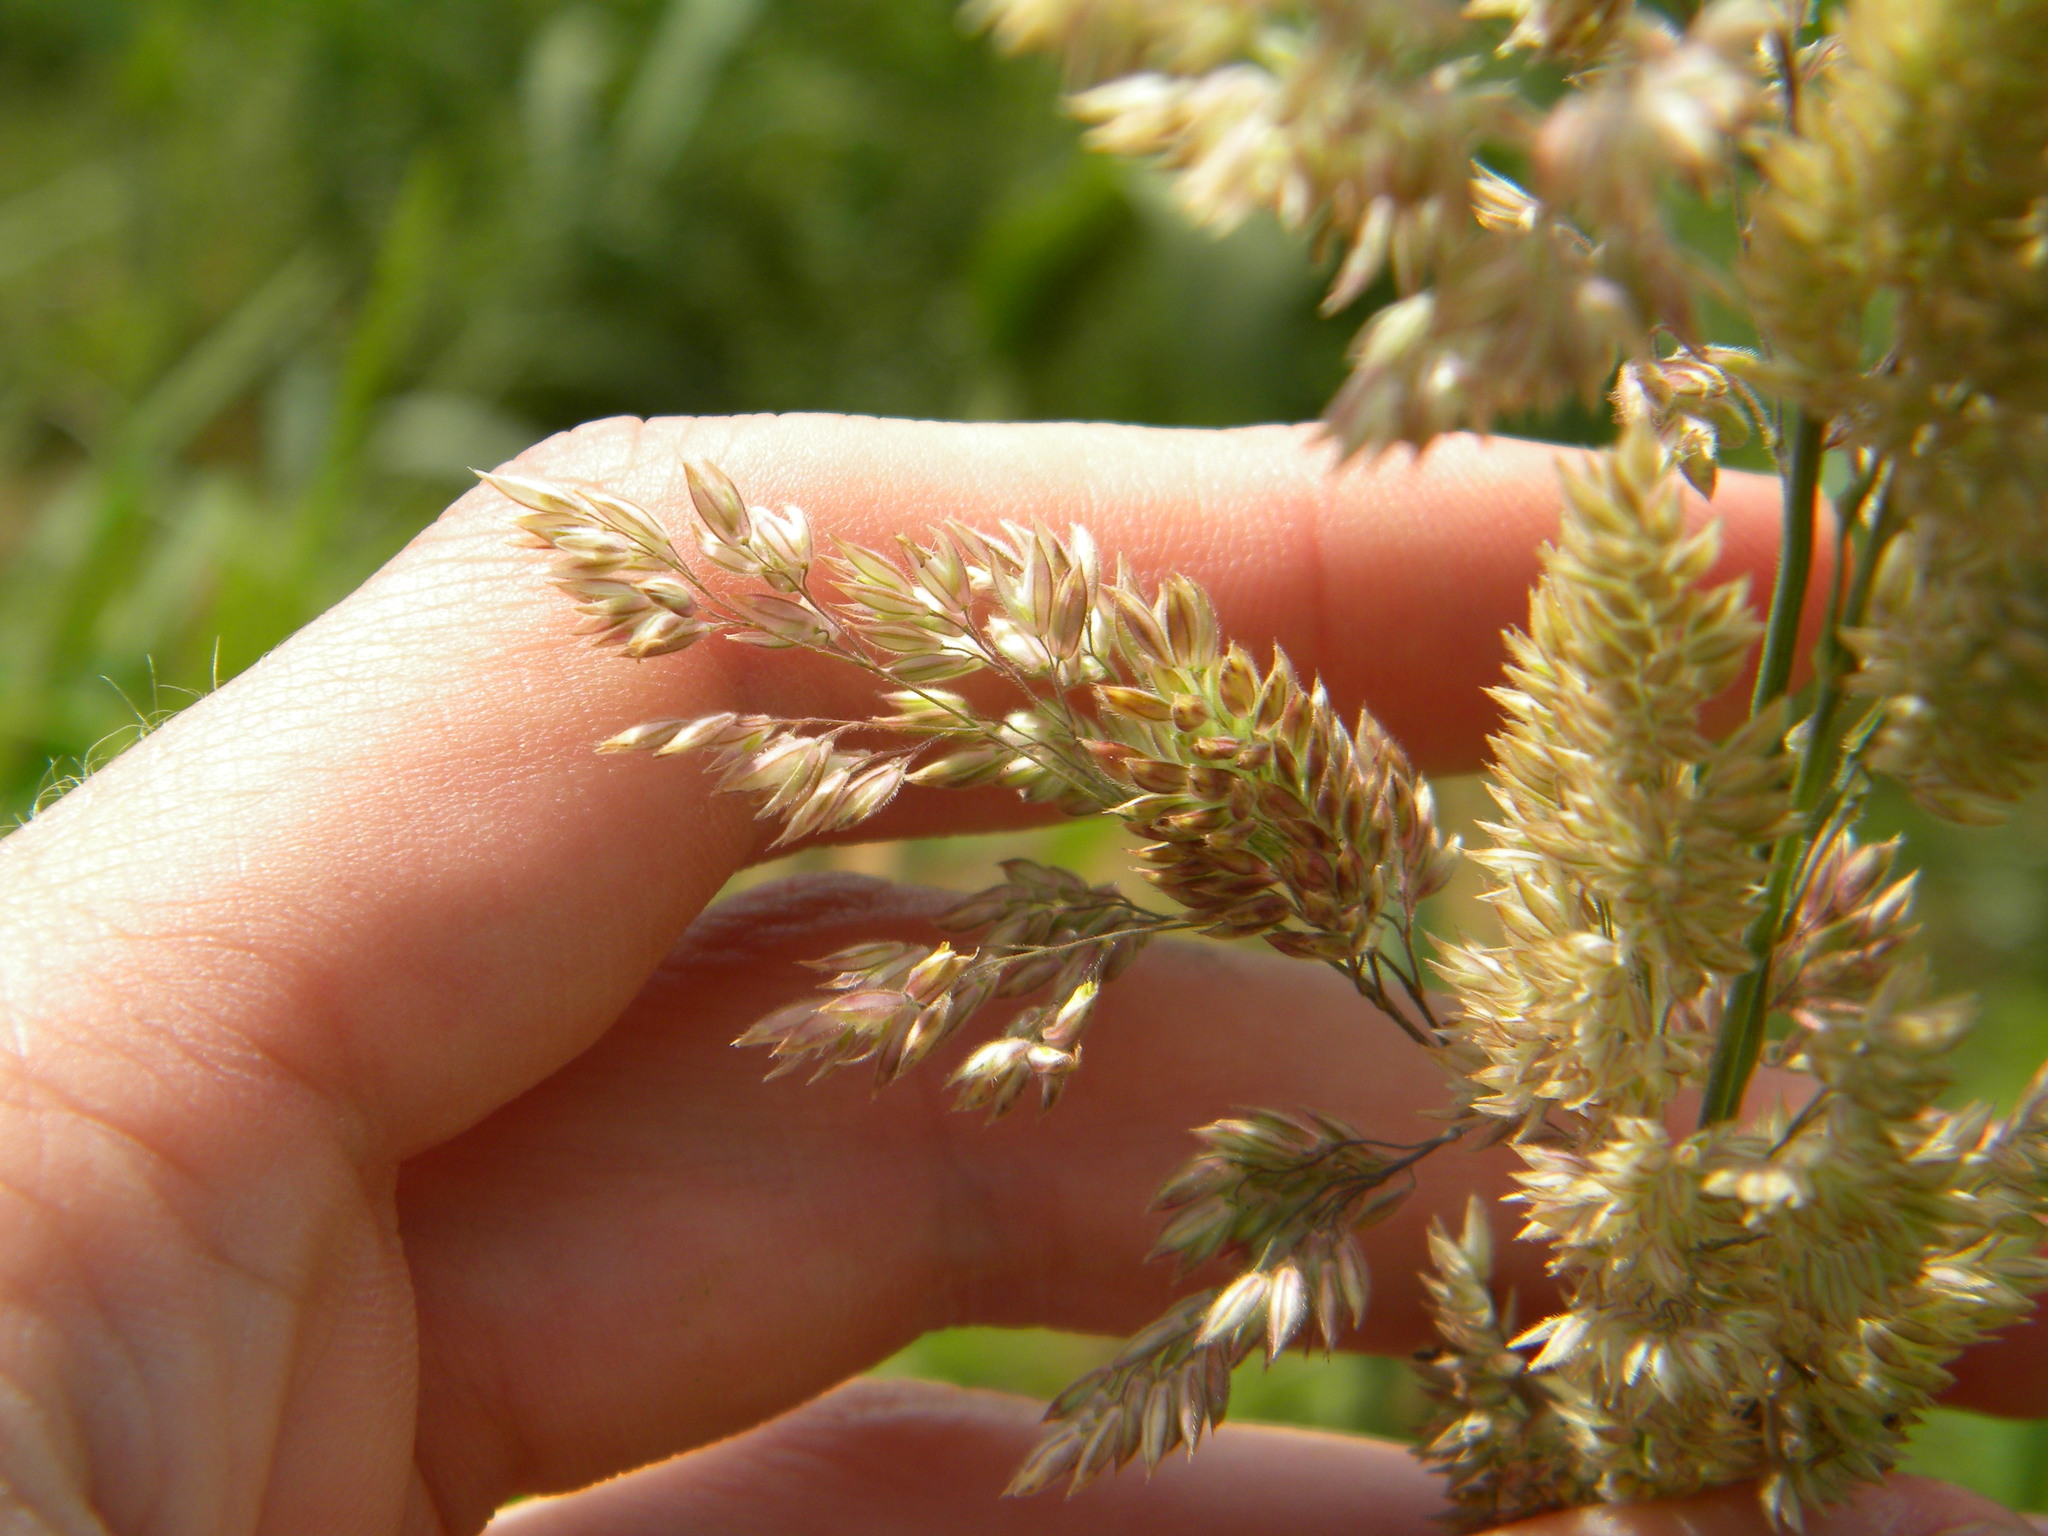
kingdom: Plantae
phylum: Tracheophyta
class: Liliopsida
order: Poales
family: Poaceae
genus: Holcus
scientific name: Holcus lanatus
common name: Yorkshire-fog
